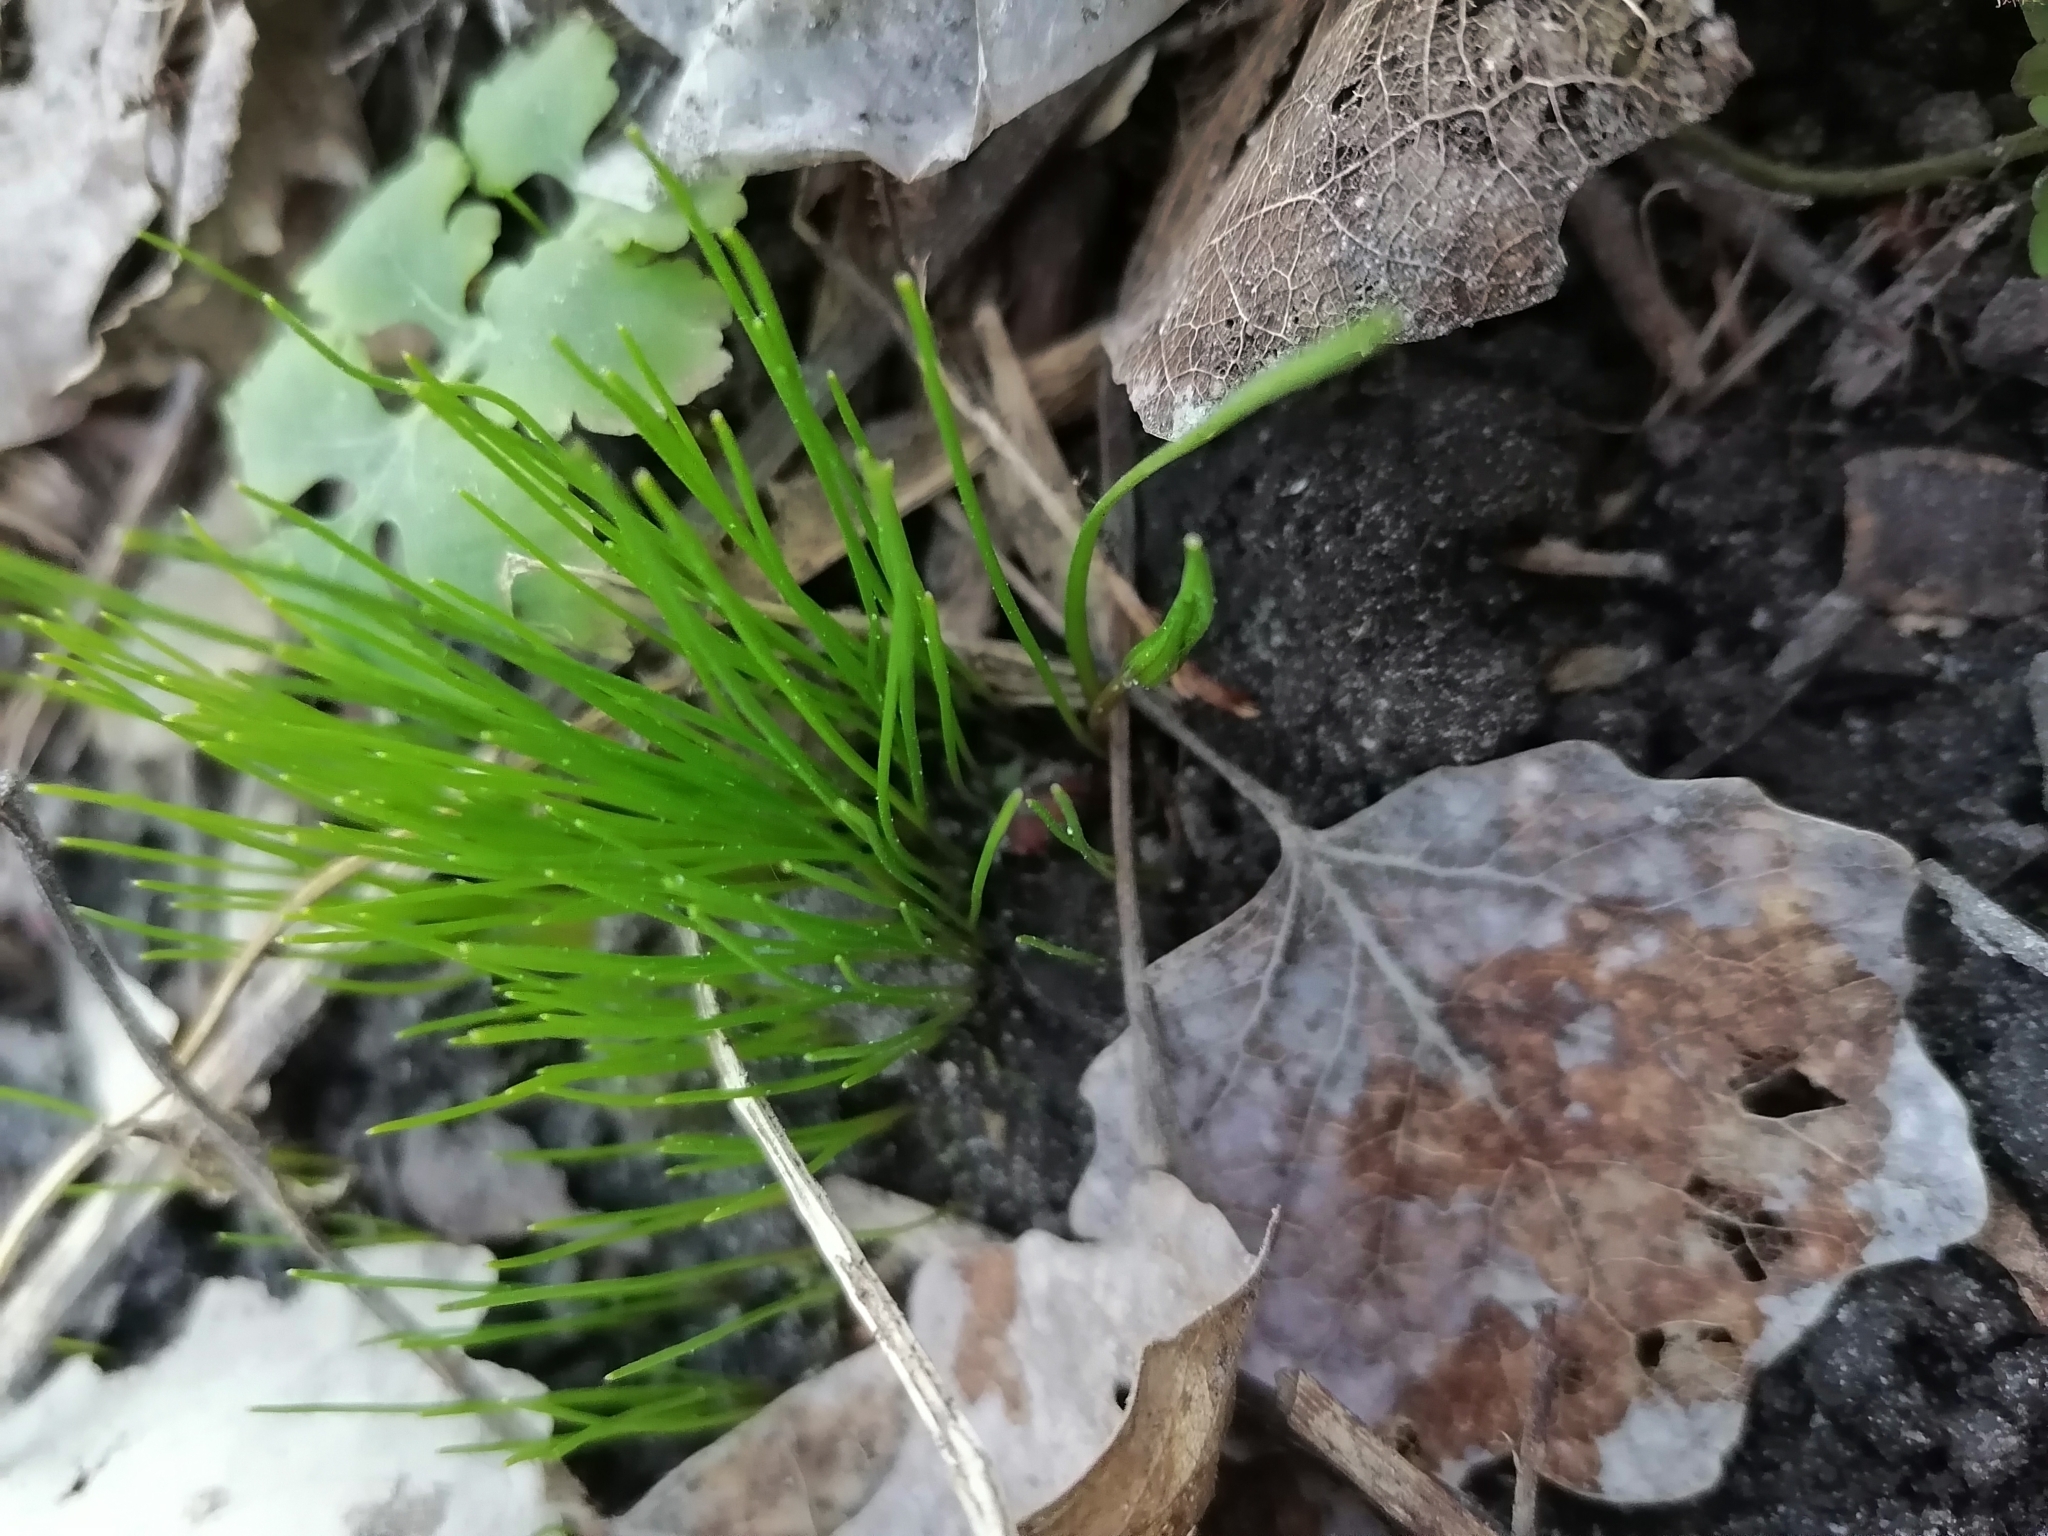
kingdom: Plantae
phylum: Tracheophyta
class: Liliopsida
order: Liliales
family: Liliaceae
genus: Gagea
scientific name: Gagea minima
